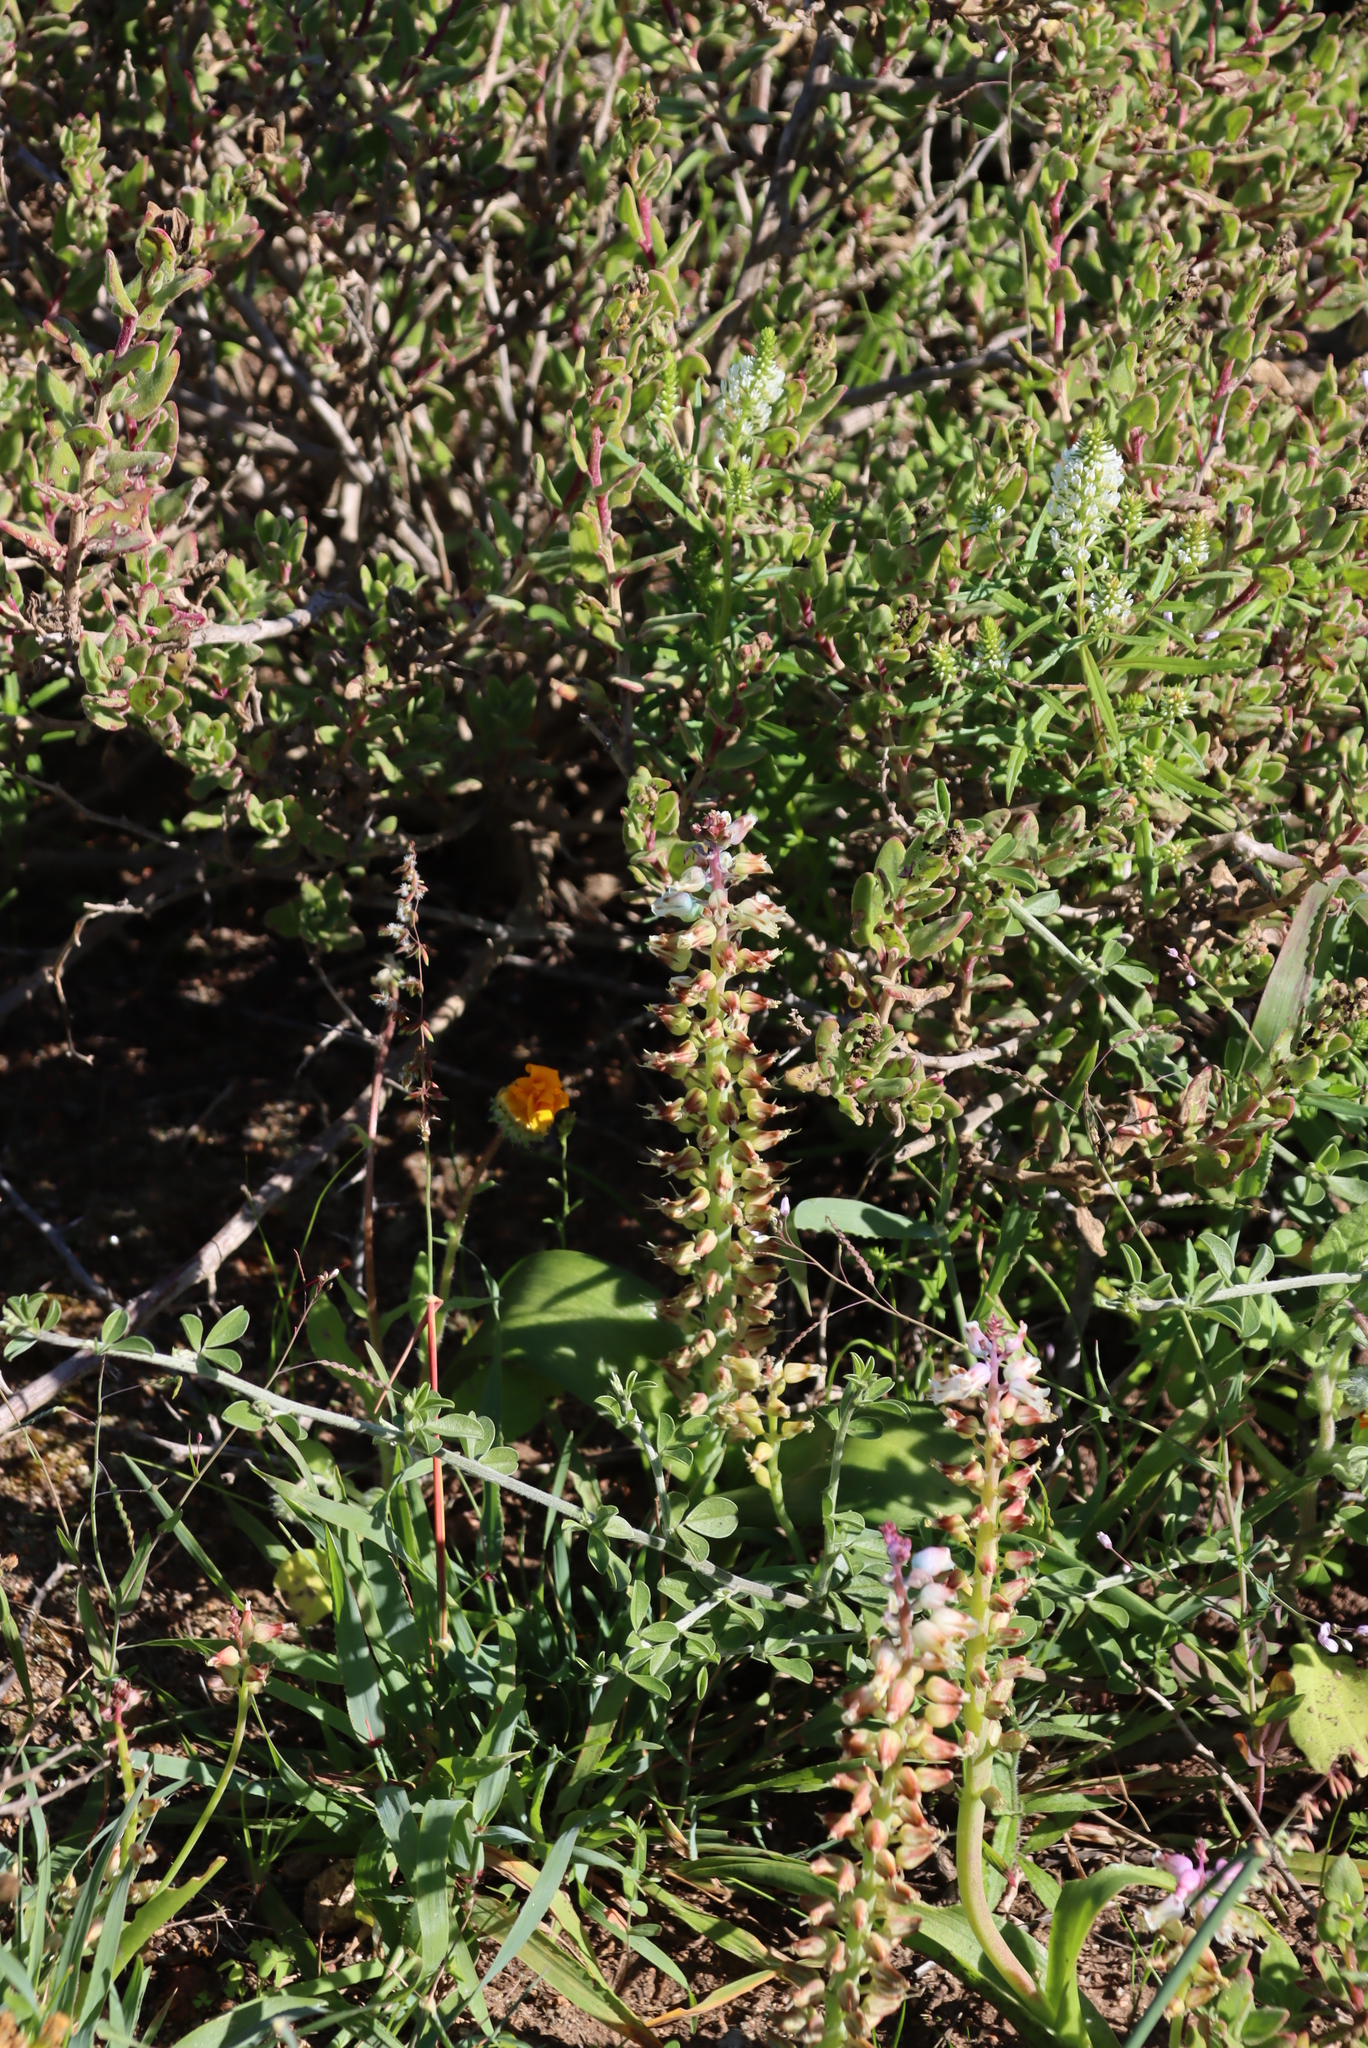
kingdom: Plantae
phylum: Tracheophyta
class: Liliopsida
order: Asparagales
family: Asparagaceae
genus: Lachenalia
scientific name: Lachenalia pallida
